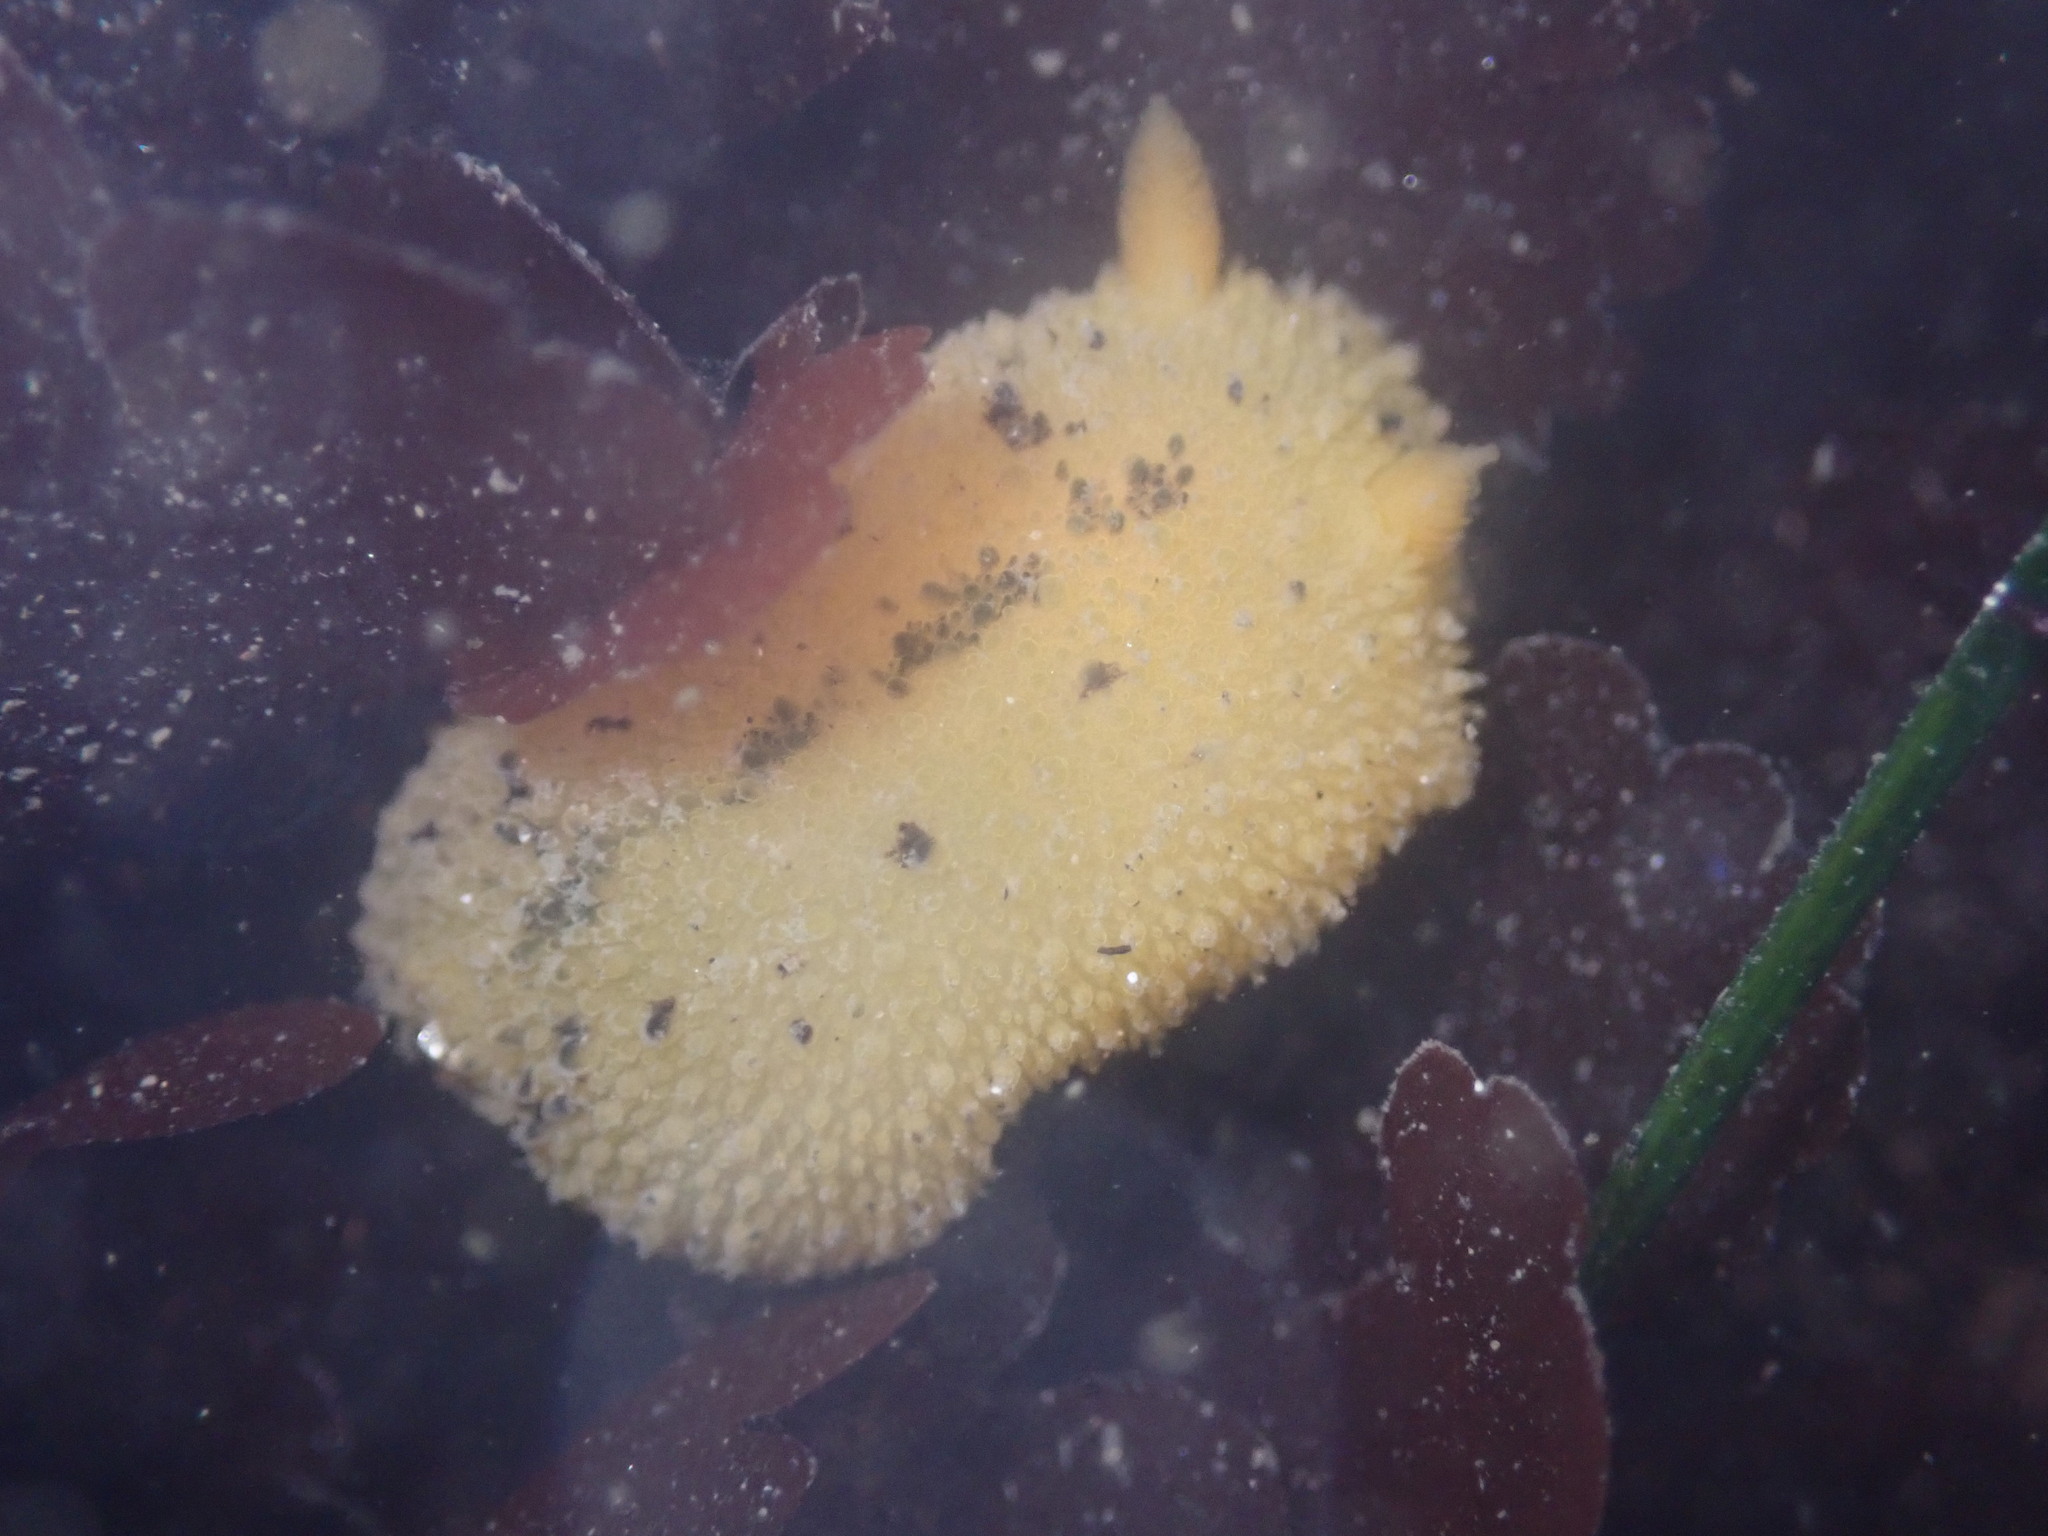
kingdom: Animalia
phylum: Mollusca
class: Gastropoda
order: Nudibranchia
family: Dorididae
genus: Doris
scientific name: Doris montereyensis
